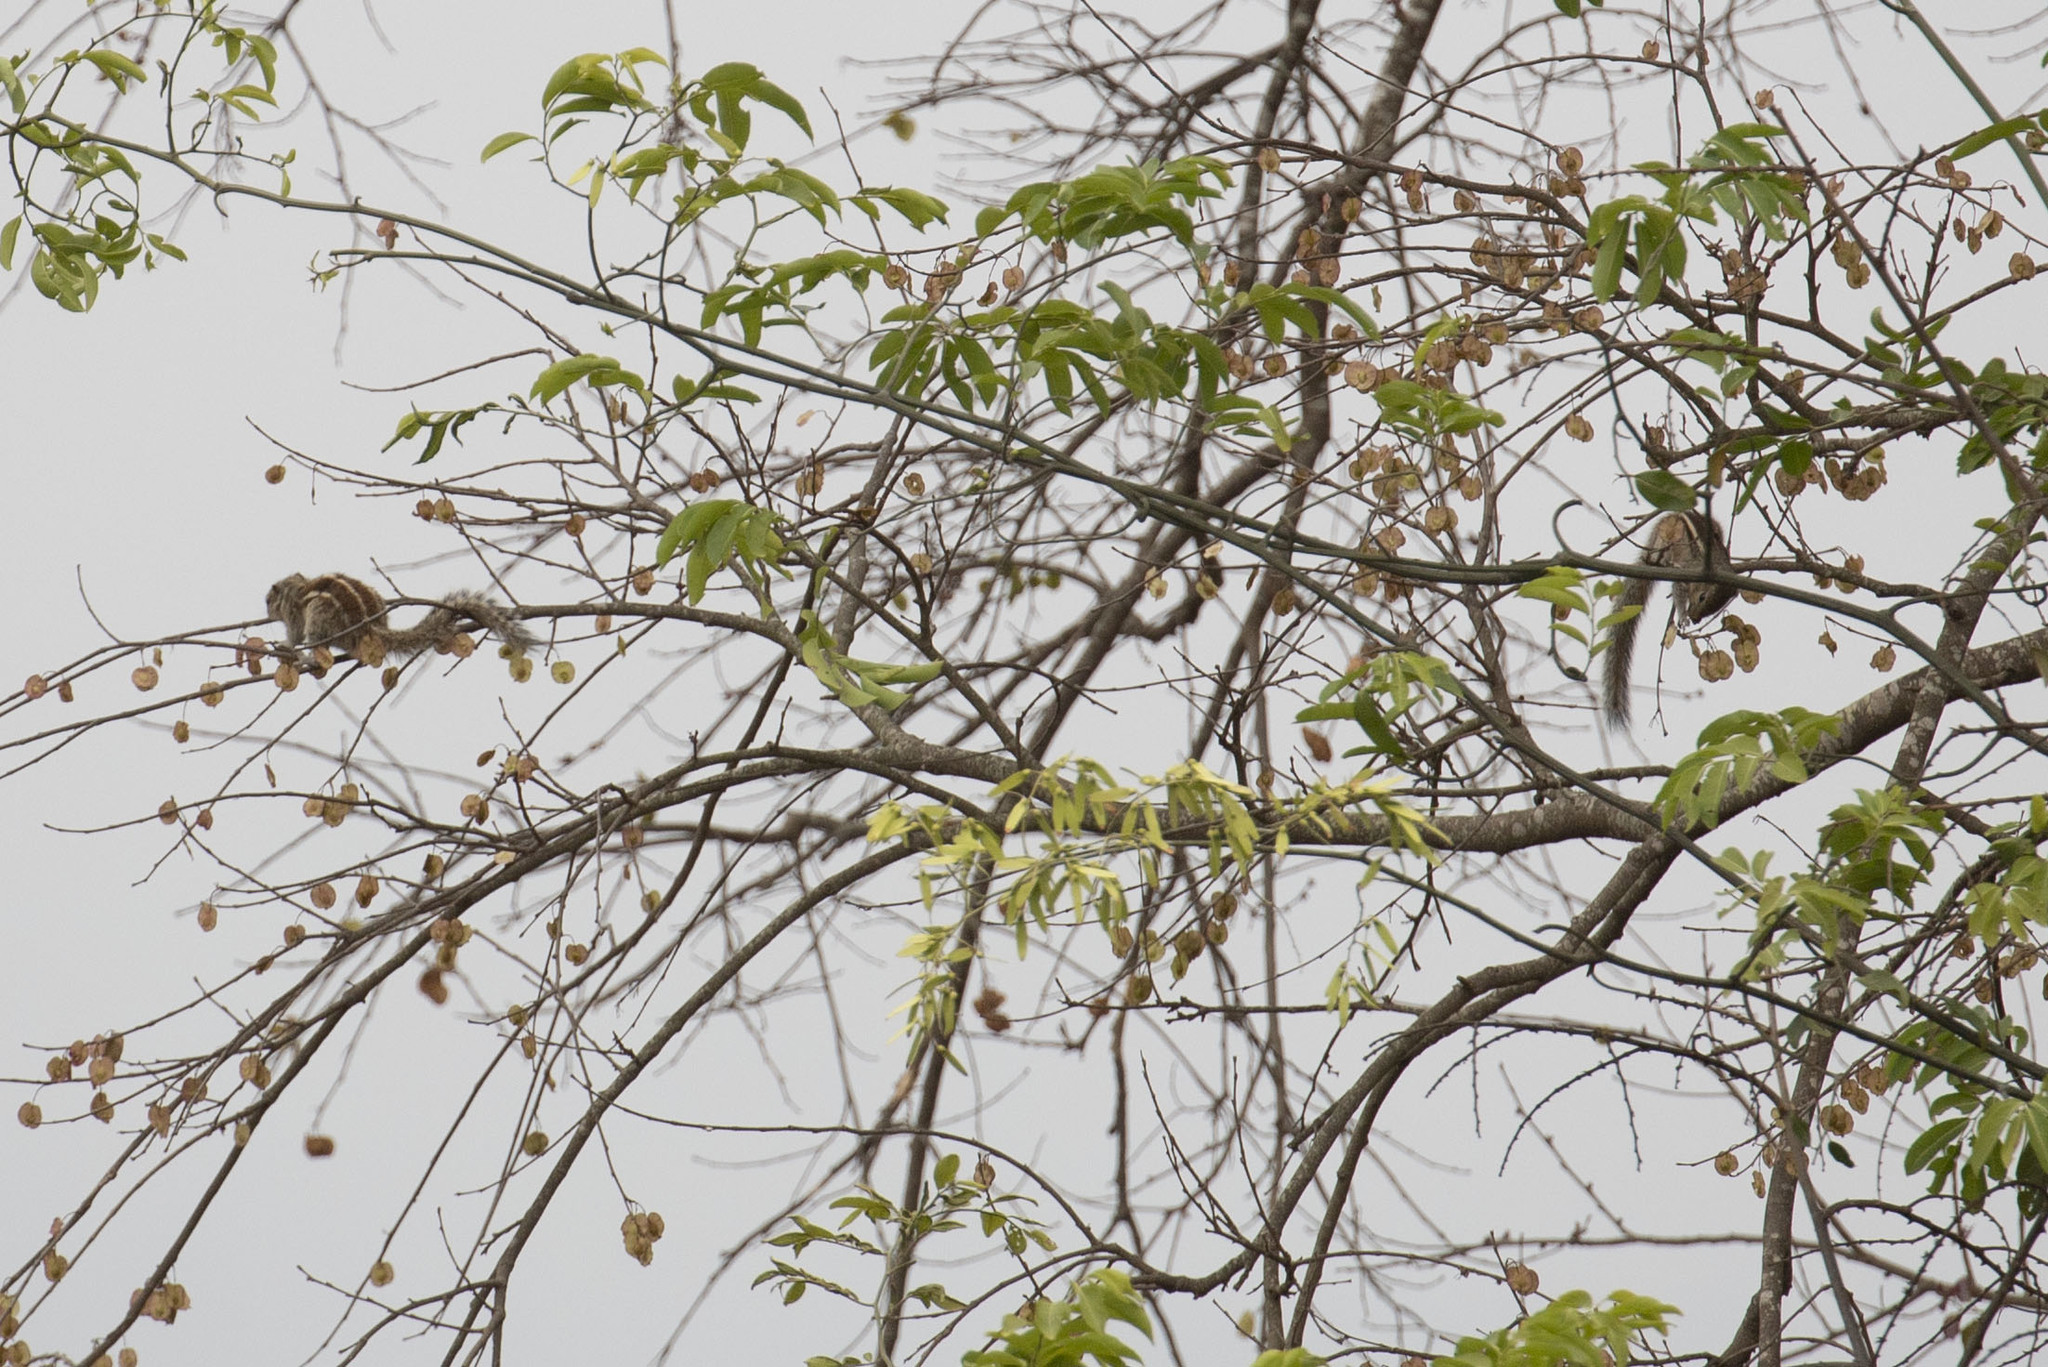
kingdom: Animalia
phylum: Chordata
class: Mammalia
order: Rodentia
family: Sciuridae
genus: Funambulus
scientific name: Funambulus palmarum
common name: Indian palm squirrel
